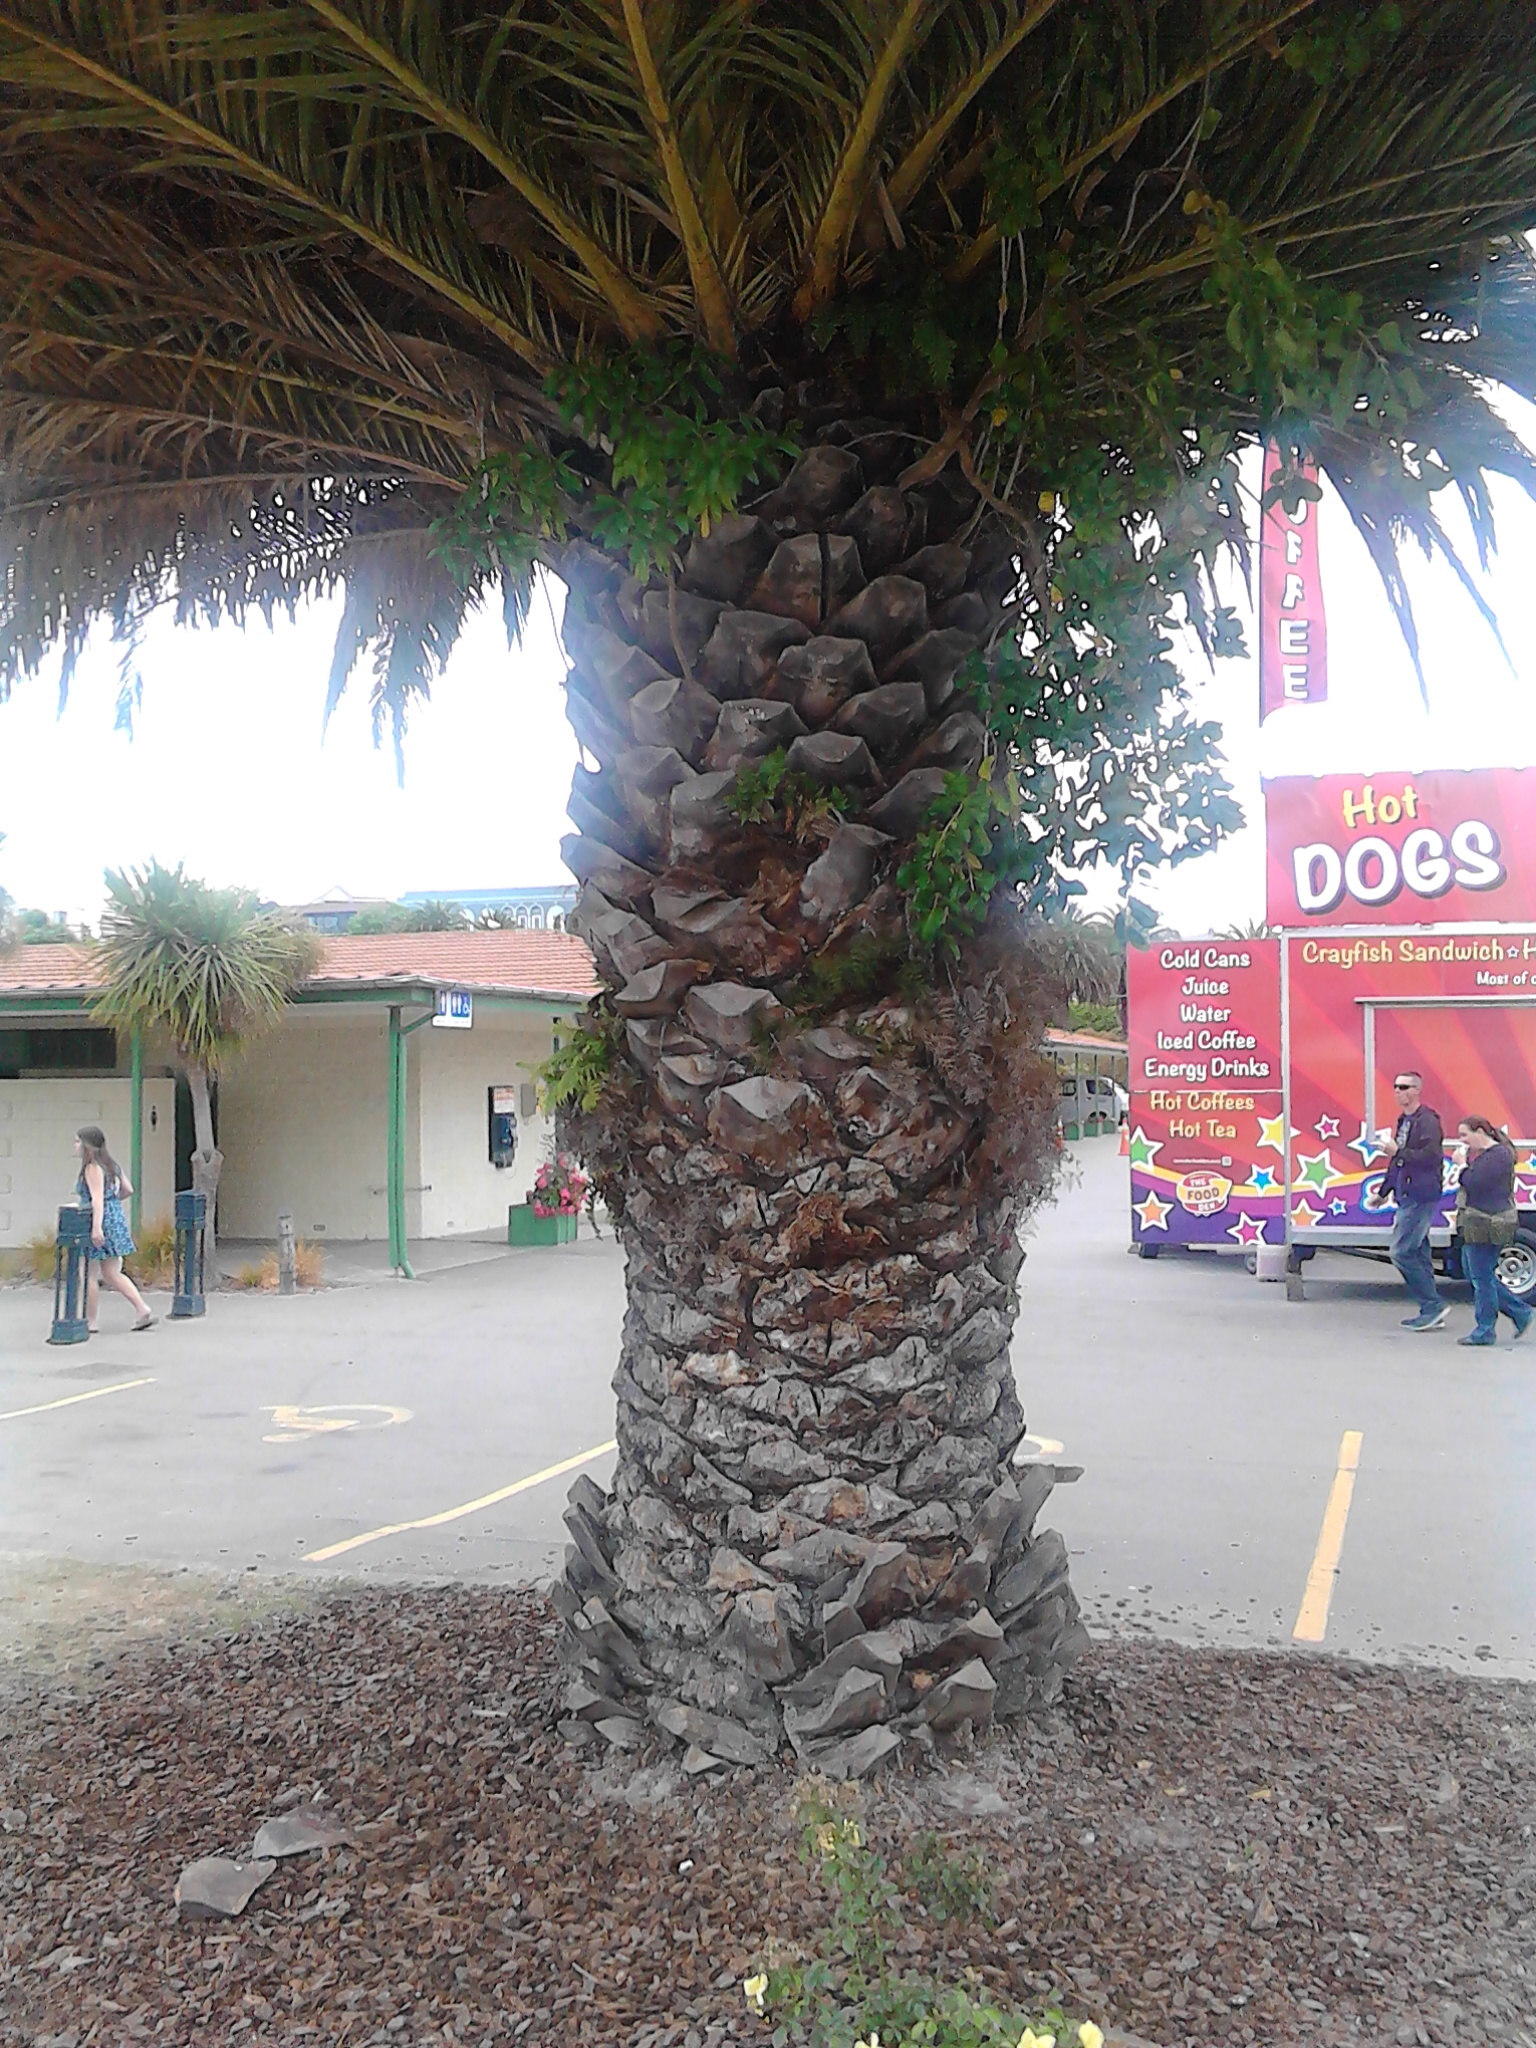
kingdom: Plantae
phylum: Tracheophyta
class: Polypodiopsida
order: Polypodiales
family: Dennstaedtiaceae
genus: Pteridium
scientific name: Pteridium esculentum
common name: Bracken fern
